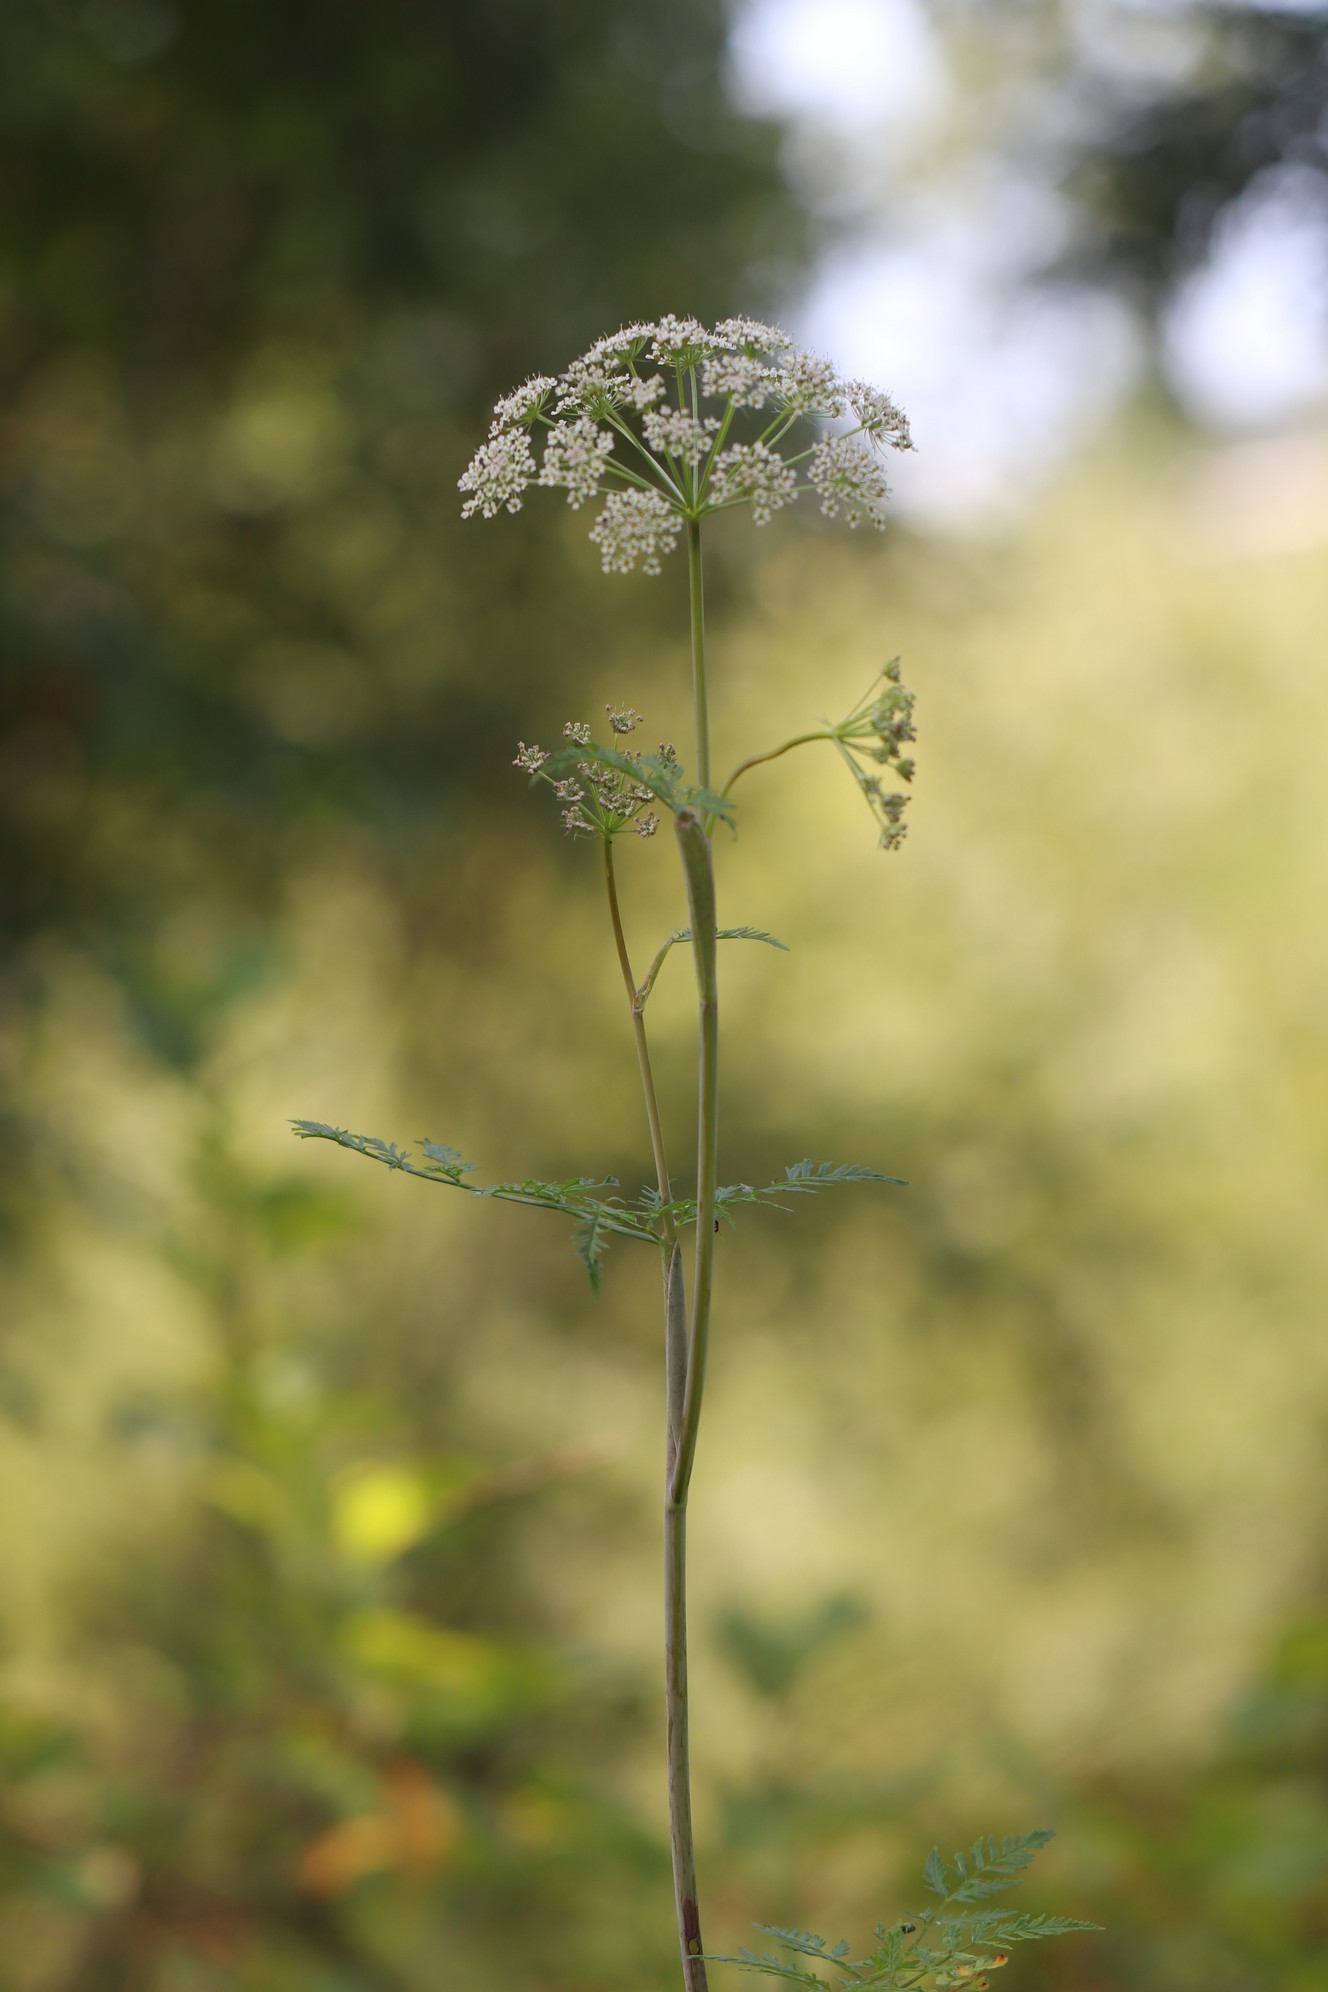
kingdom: Plantae
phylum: Tracheophyta
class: Magnoliopsida
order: Apiales
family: Apiaceae
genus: Conioselinum
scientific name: Conioselinum tataricum
